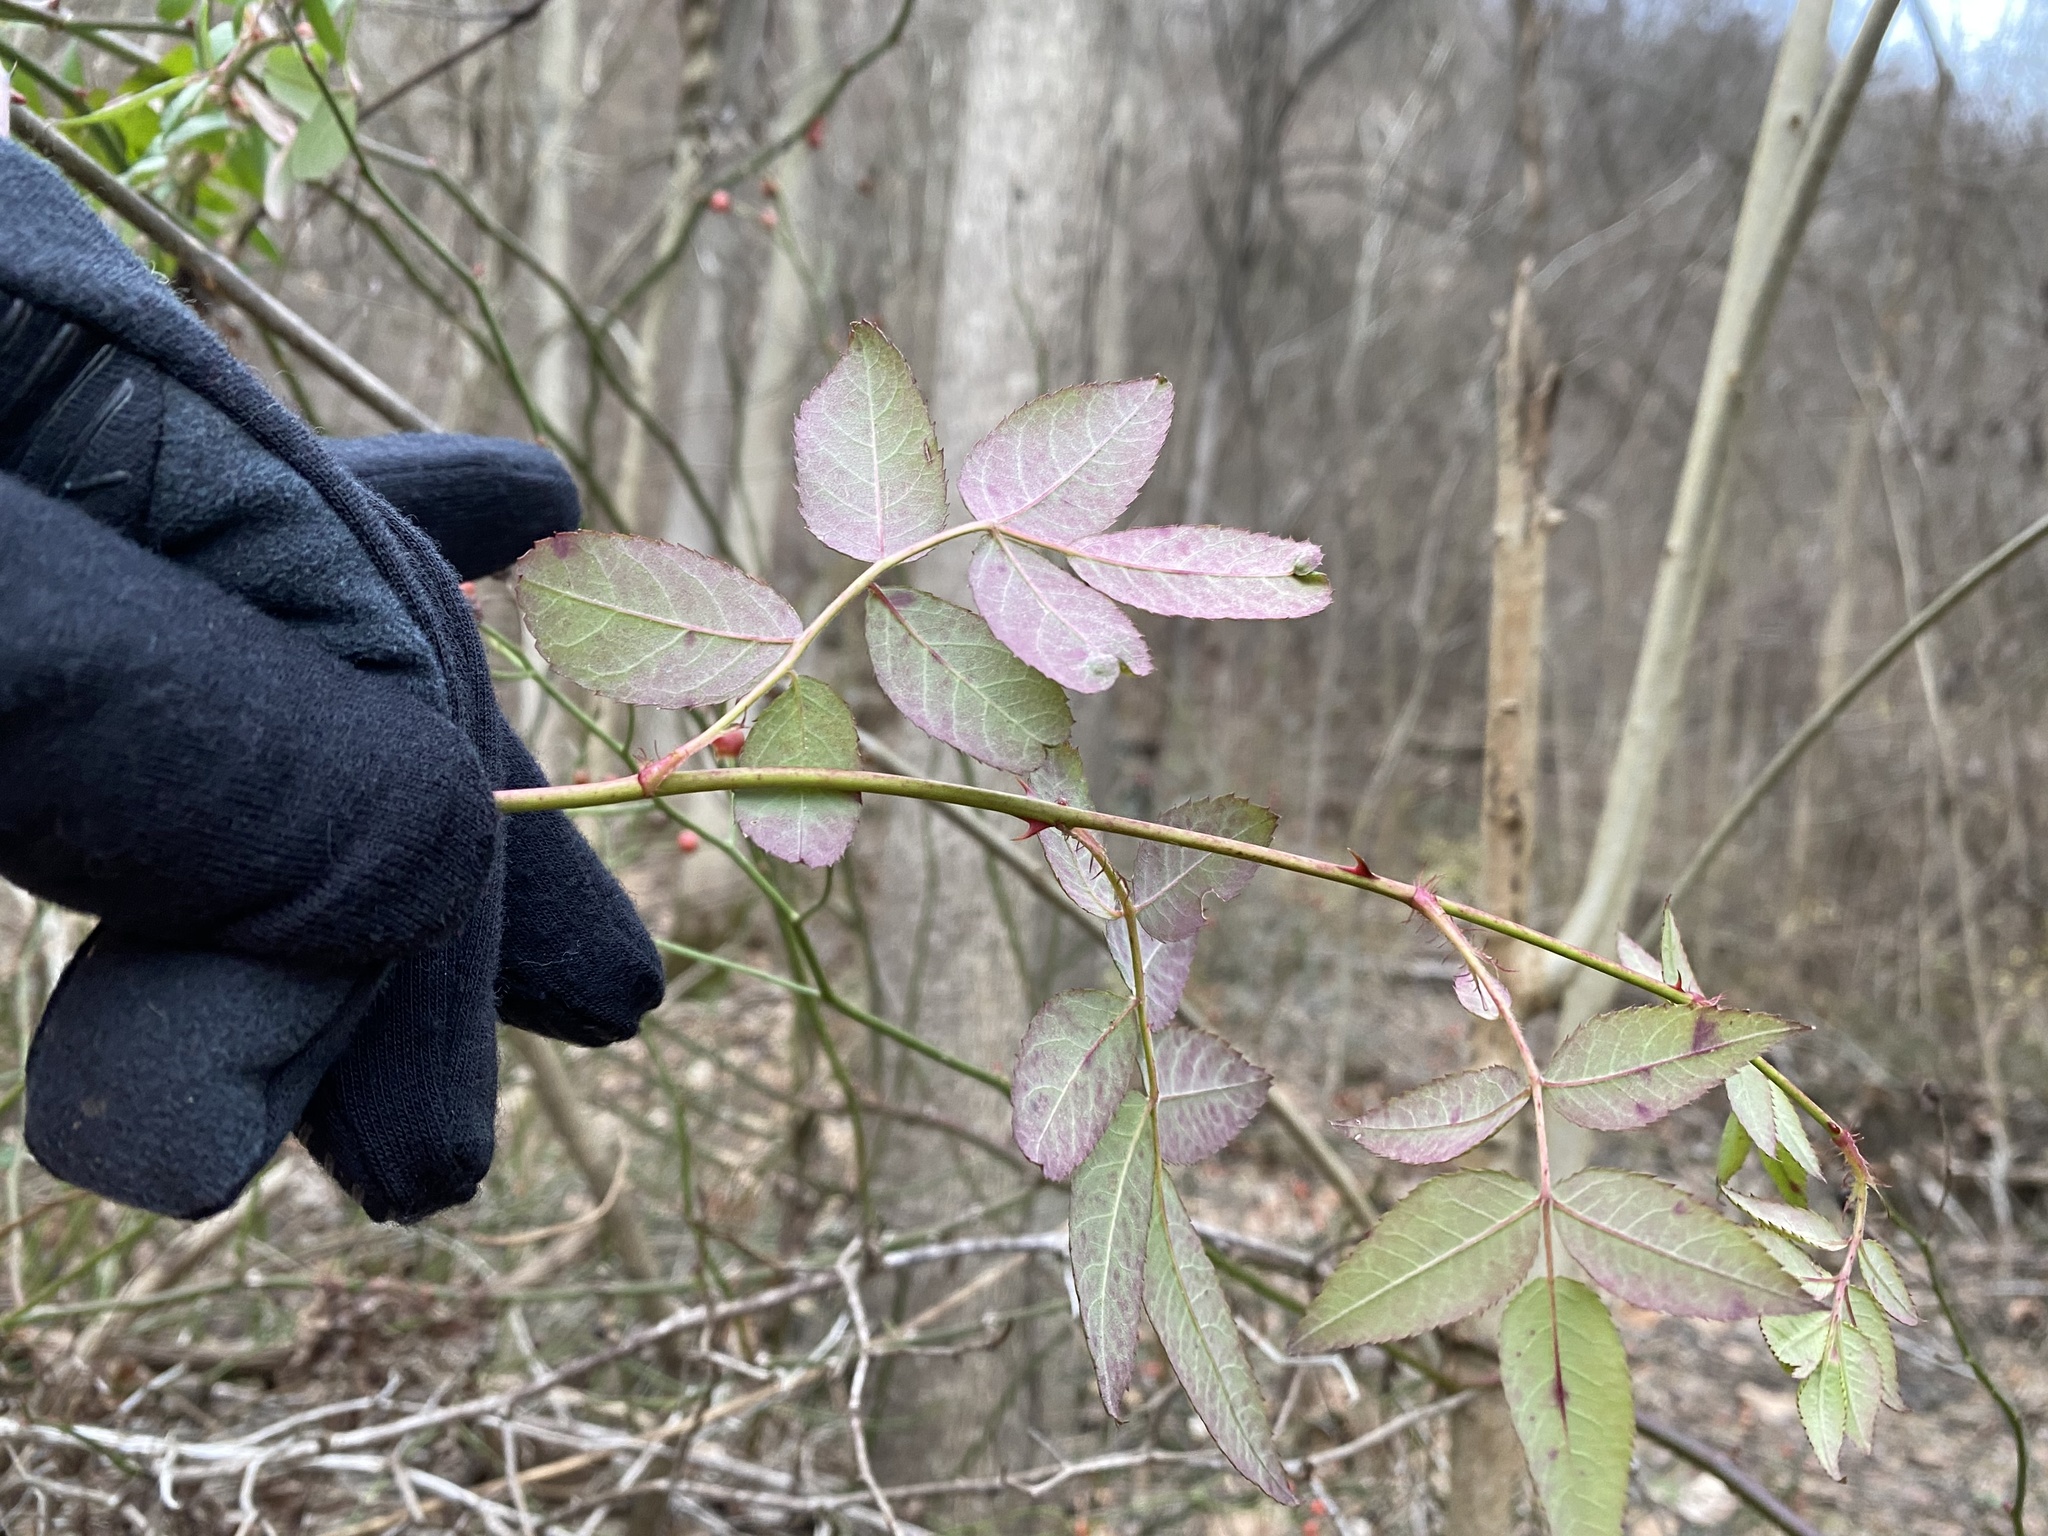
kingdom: Plantae
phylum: Tracheophyta
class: Magnoliopsida
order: Rosales
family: Rosaceae
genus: Rosa
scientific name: Rosa multiflora
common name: Multiflora rose
